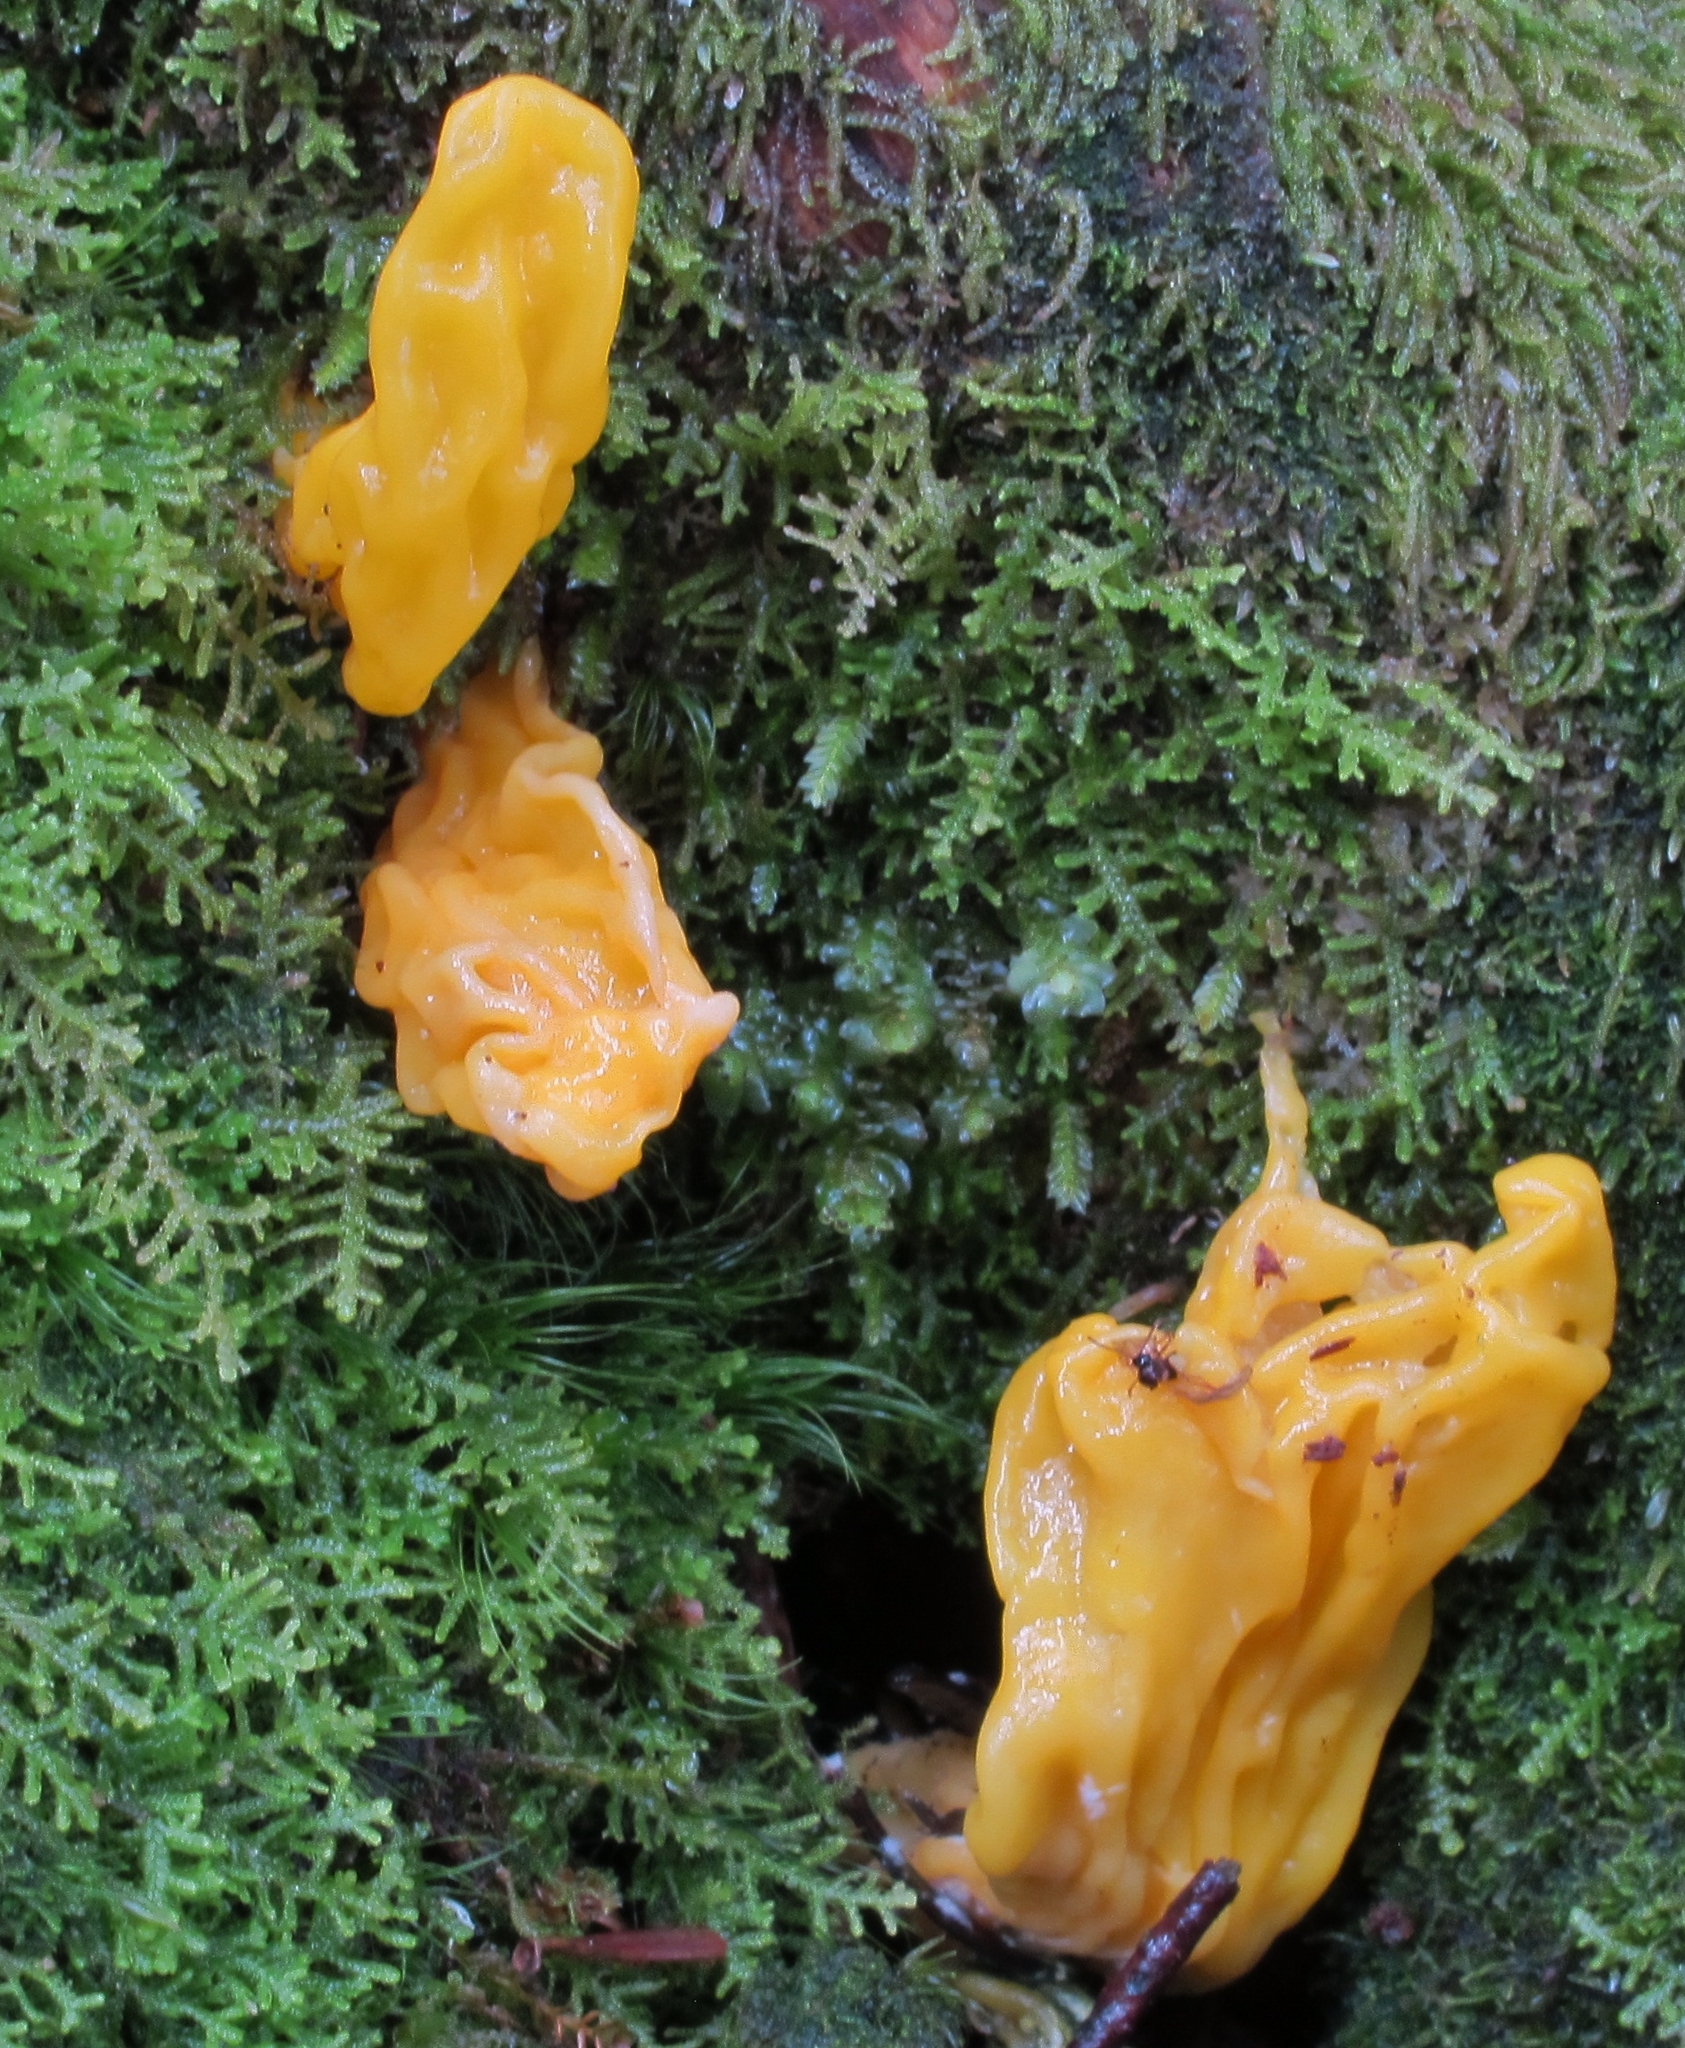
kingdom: Fungi
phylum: Ascomycota
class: Neolectomycetes
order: Neolectales
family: Neolectaceae
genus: Neolecta
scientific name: Neolecta irregularis
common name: Irregular earth tongue
